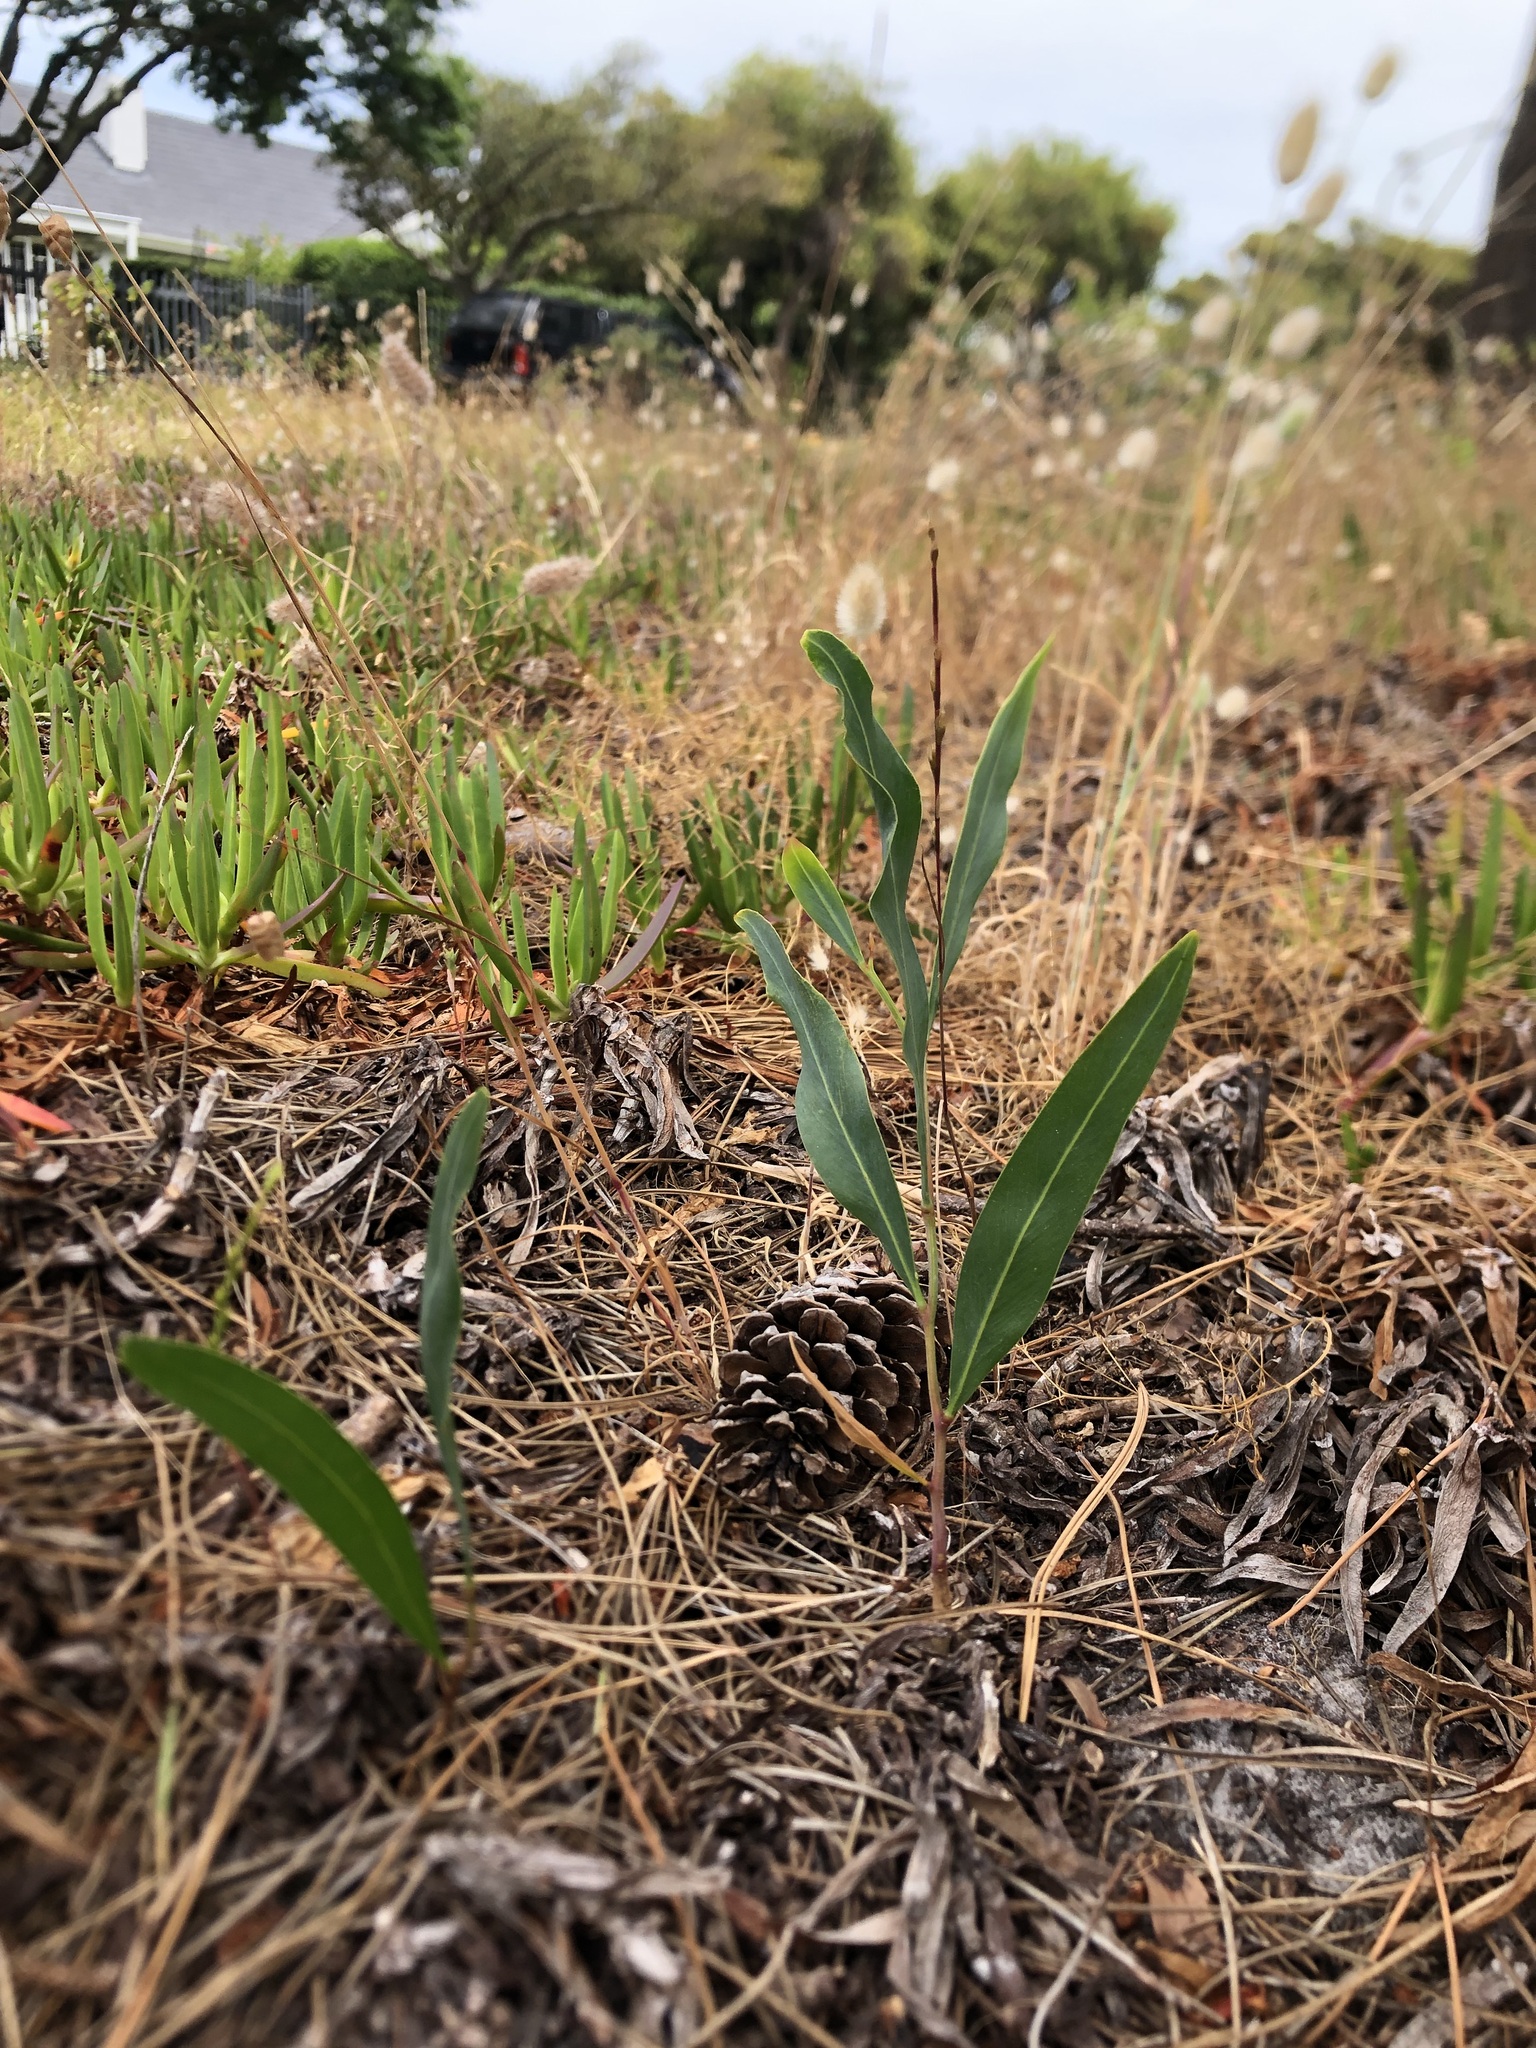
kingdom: Plantae
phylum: Tracheophyta
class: Magnoliopsida
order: Fabales
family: Fabaceae
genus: Acacia
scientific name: Acacia saligna
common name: Orange wattle
